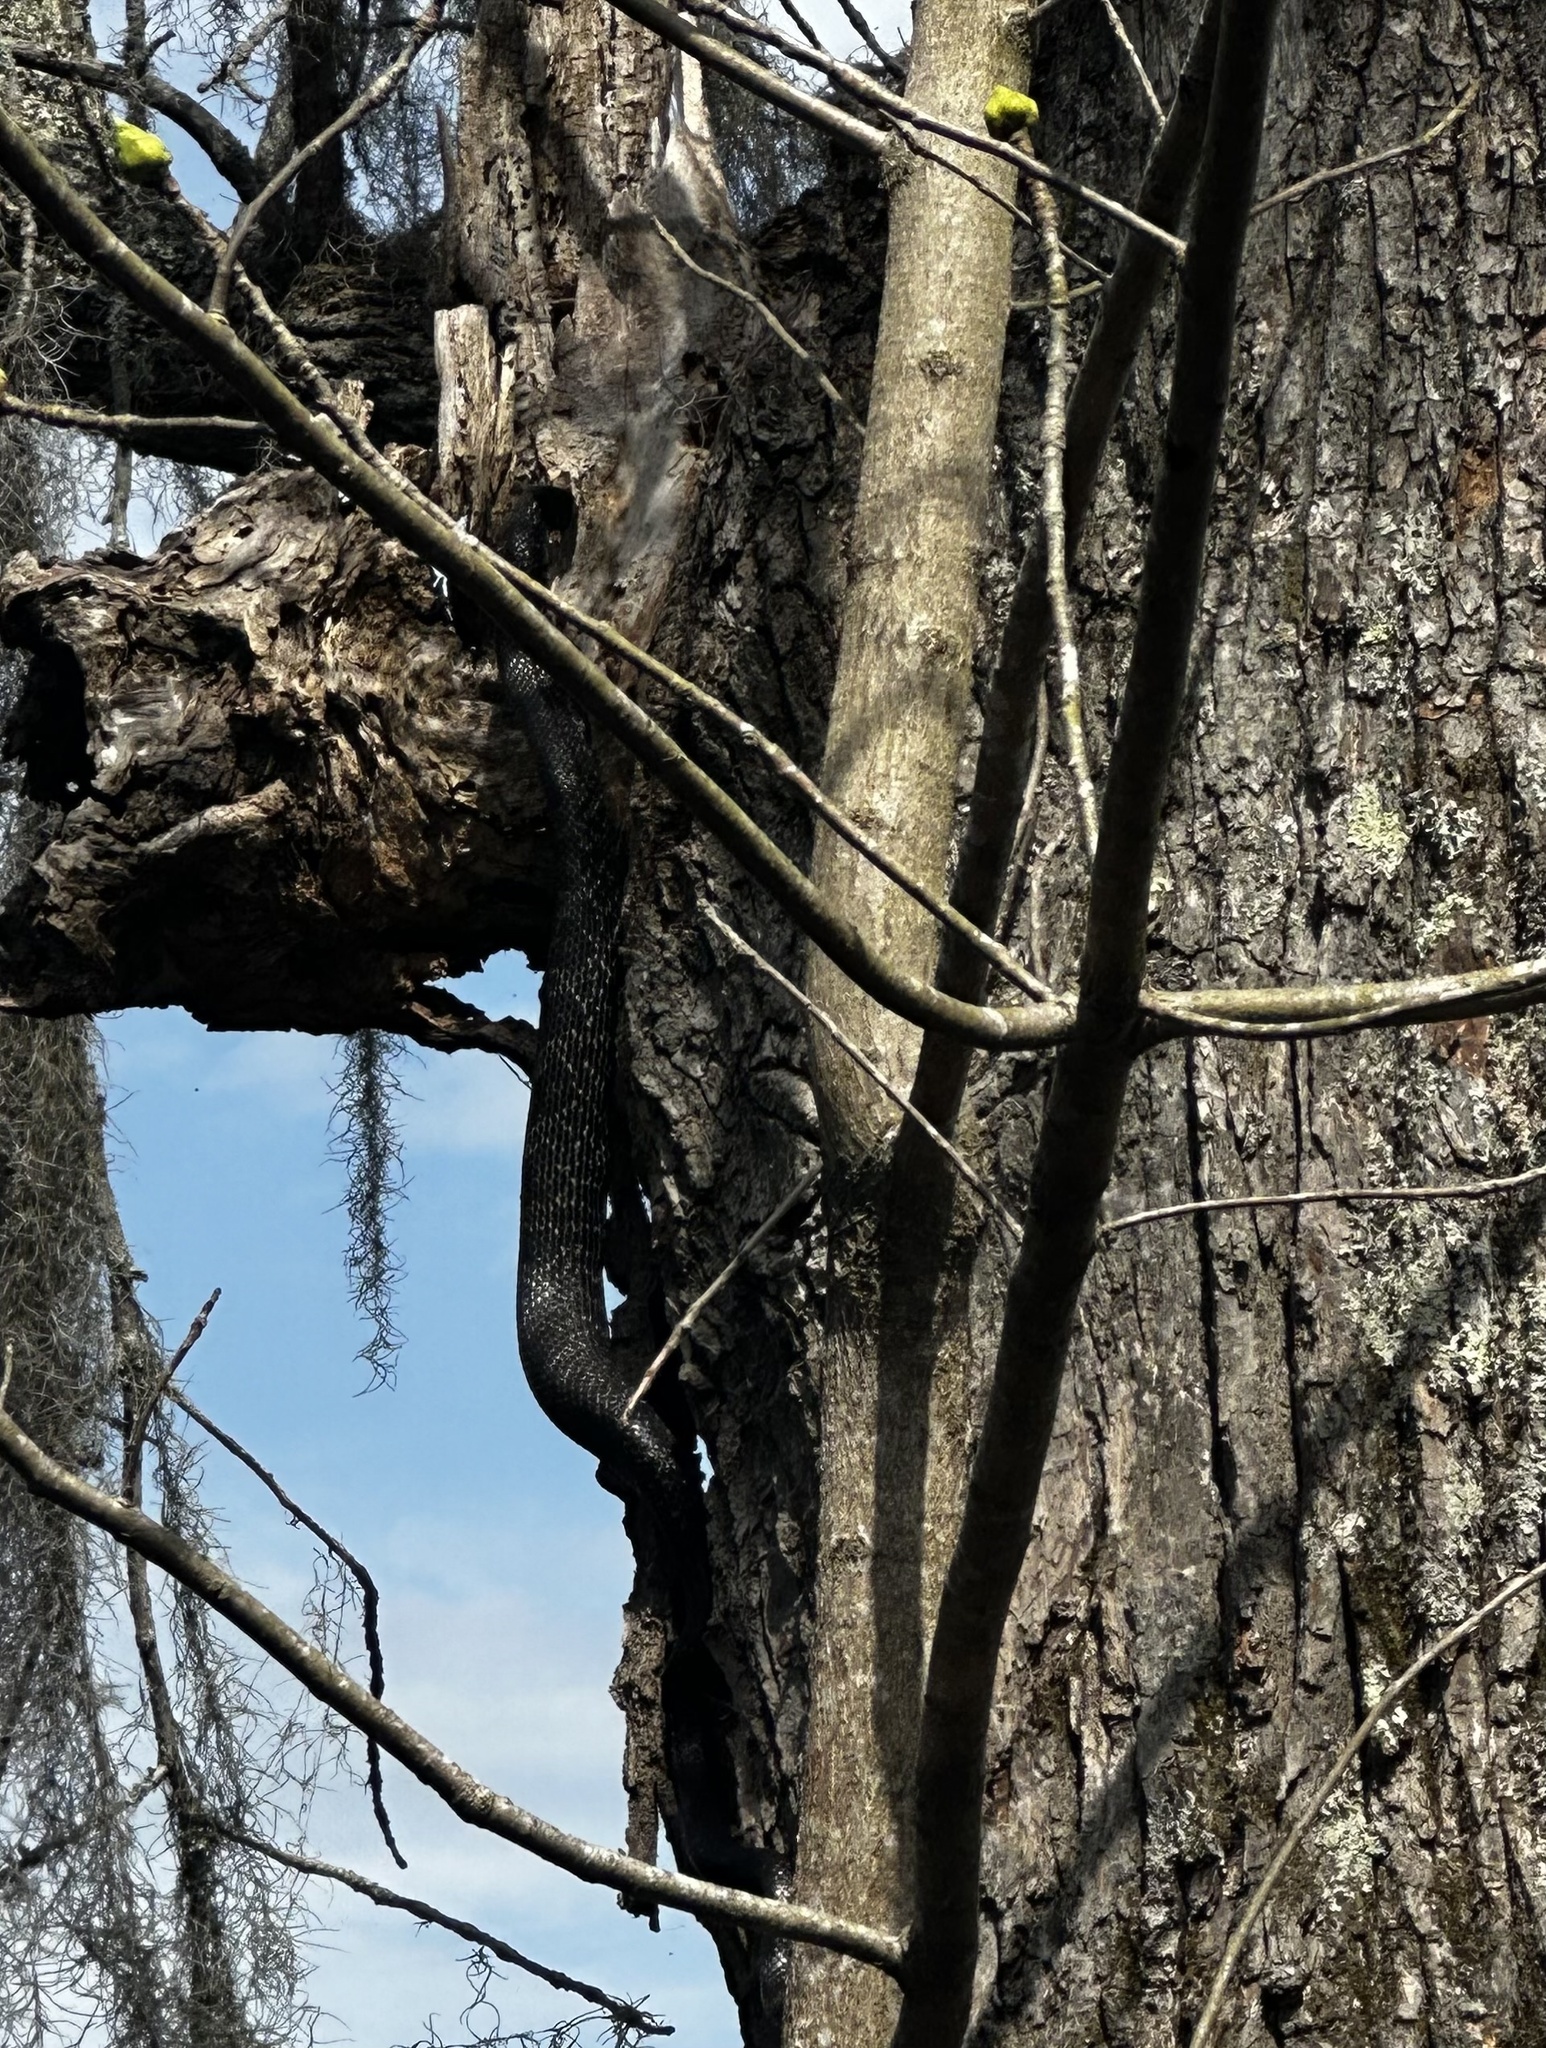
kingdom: Animalia
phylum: Chordata
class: Squamata
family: Colubridae
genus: Pantherophis
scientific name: Pantherophis alleghaniensis
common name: Eastern rat snake
